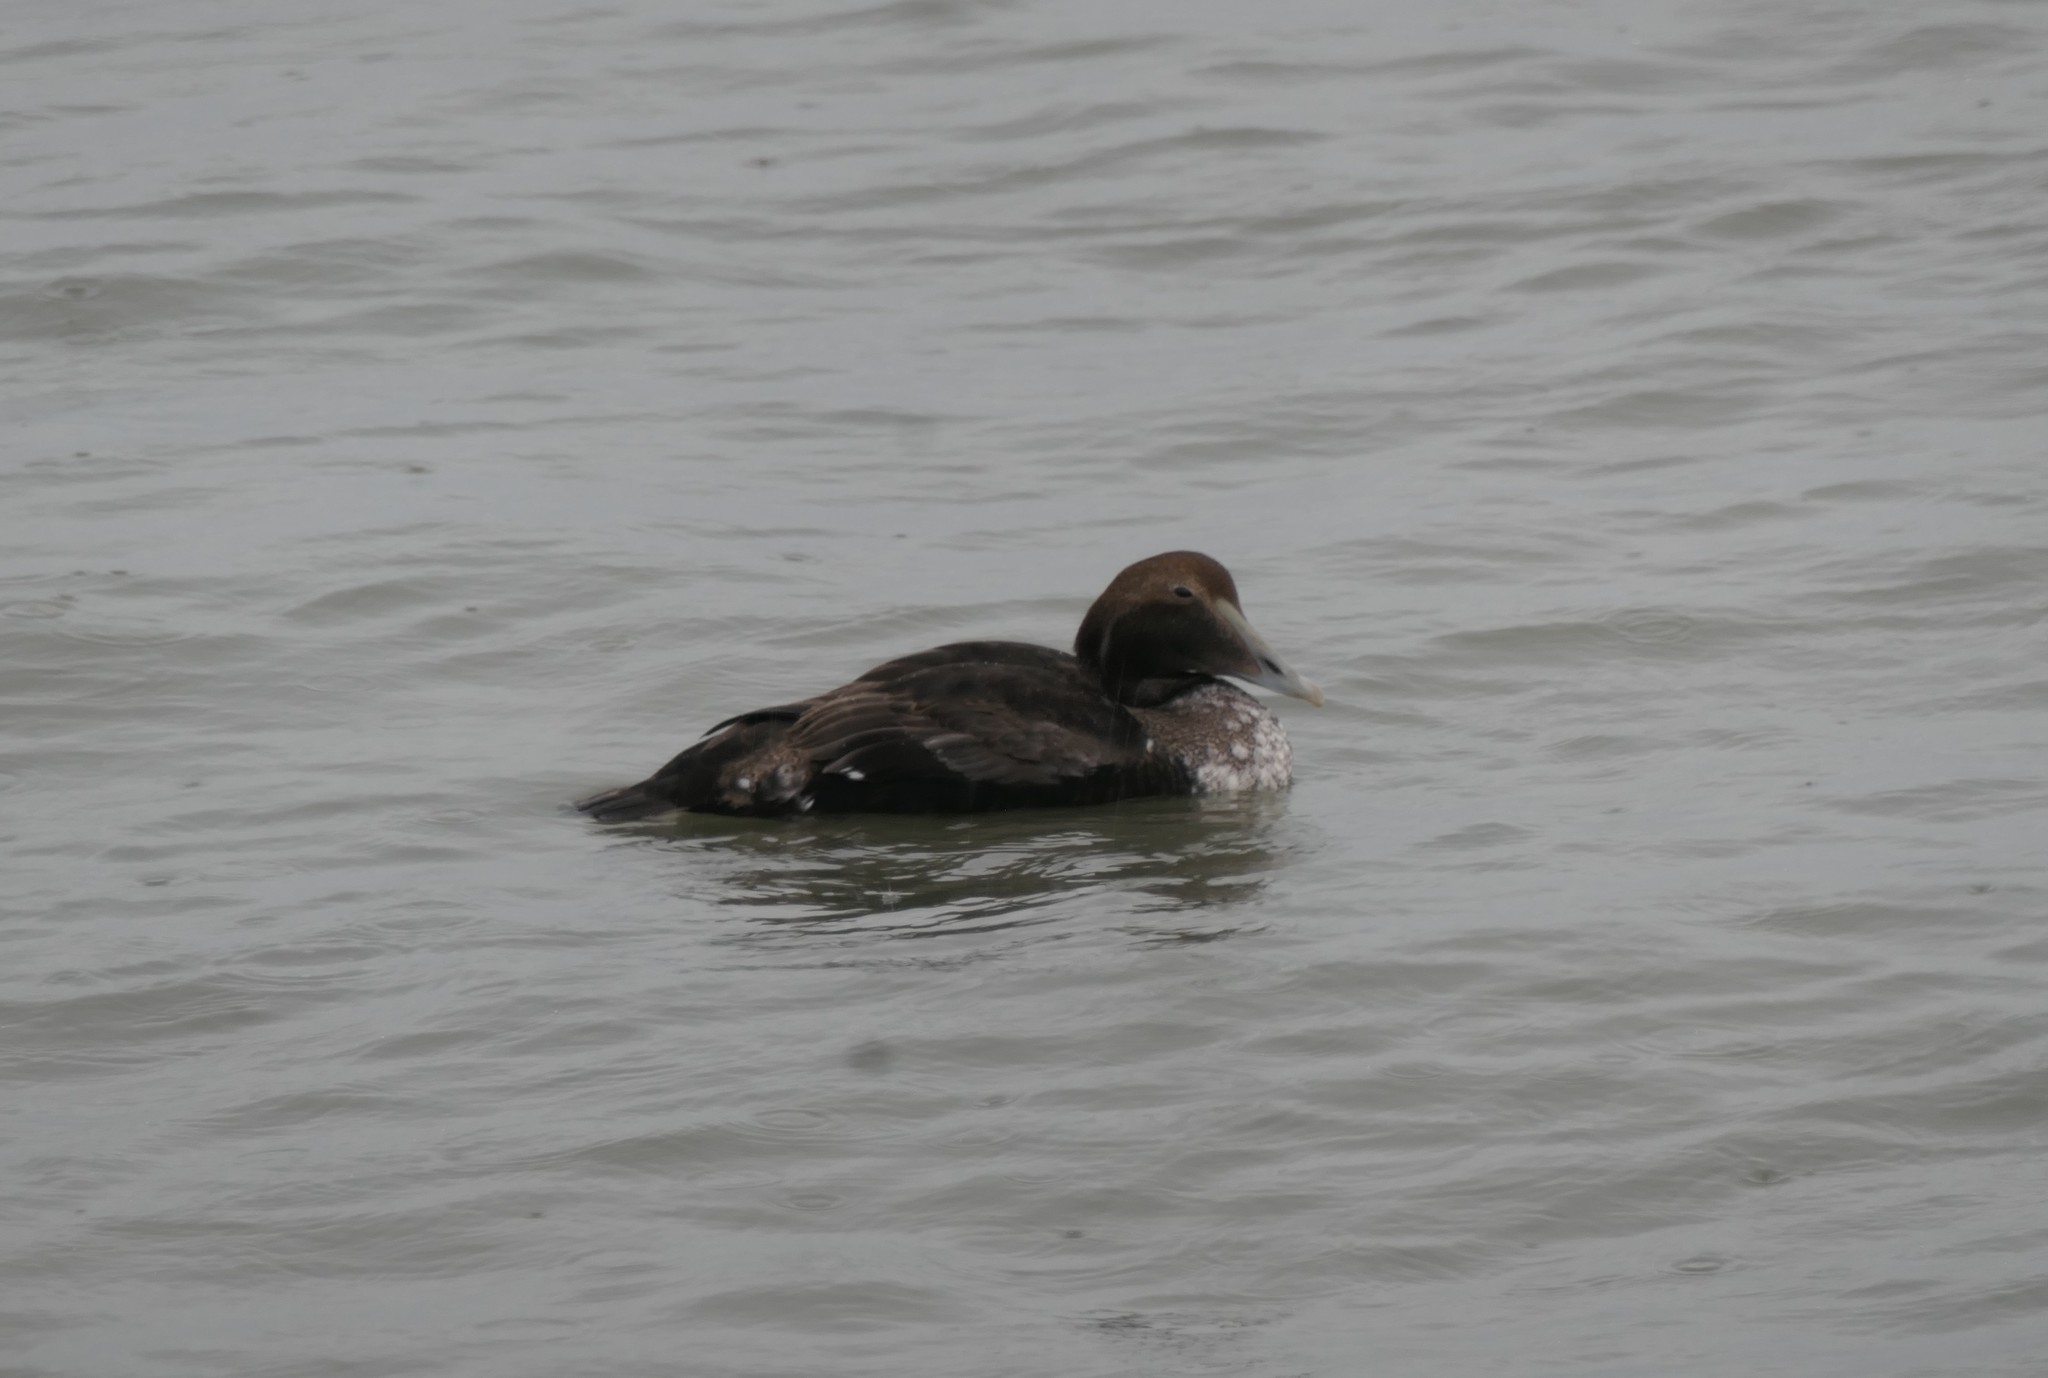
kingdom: Animalia
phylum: Chordata
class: Aves
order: Anseriformes
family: Anatidae
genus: Somateria
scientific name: Somateria mollissima
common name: Common eider
